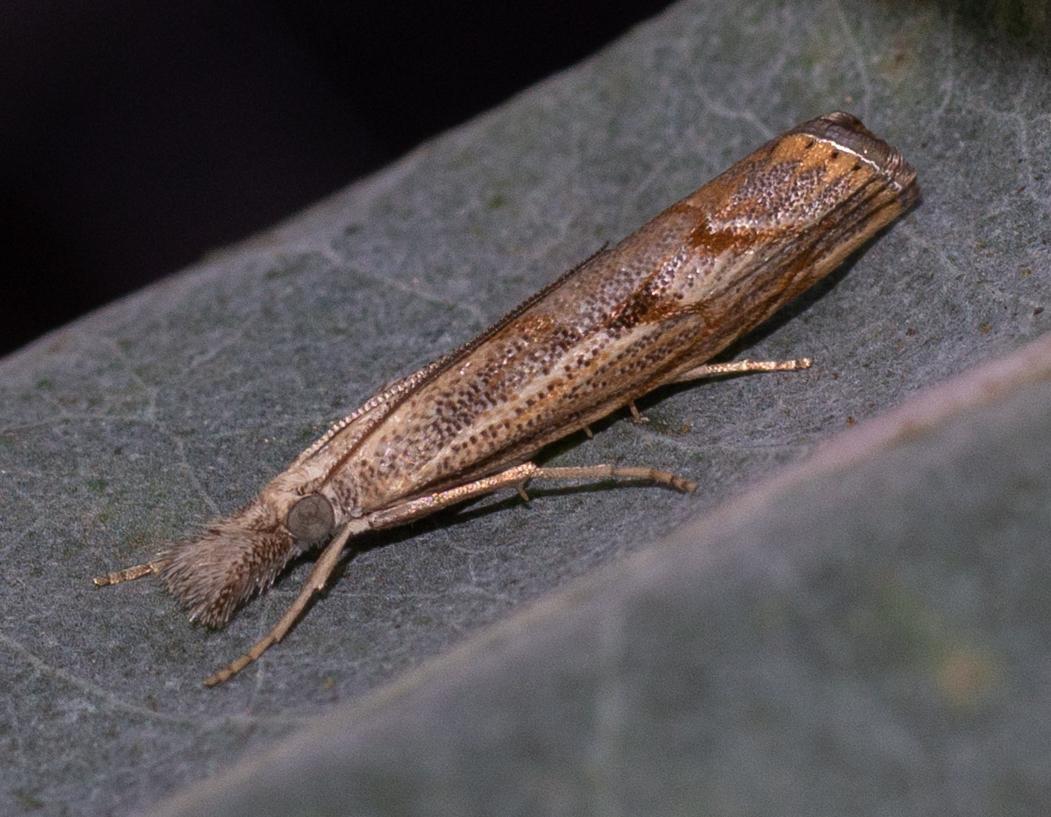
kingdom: Animalia
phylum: Arthropoda
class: Insecta
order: Lepidoptera
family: Crambidae
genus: Agriphila
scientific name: Agriphila geniculea
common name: Elbow-stripe grass-veneer
